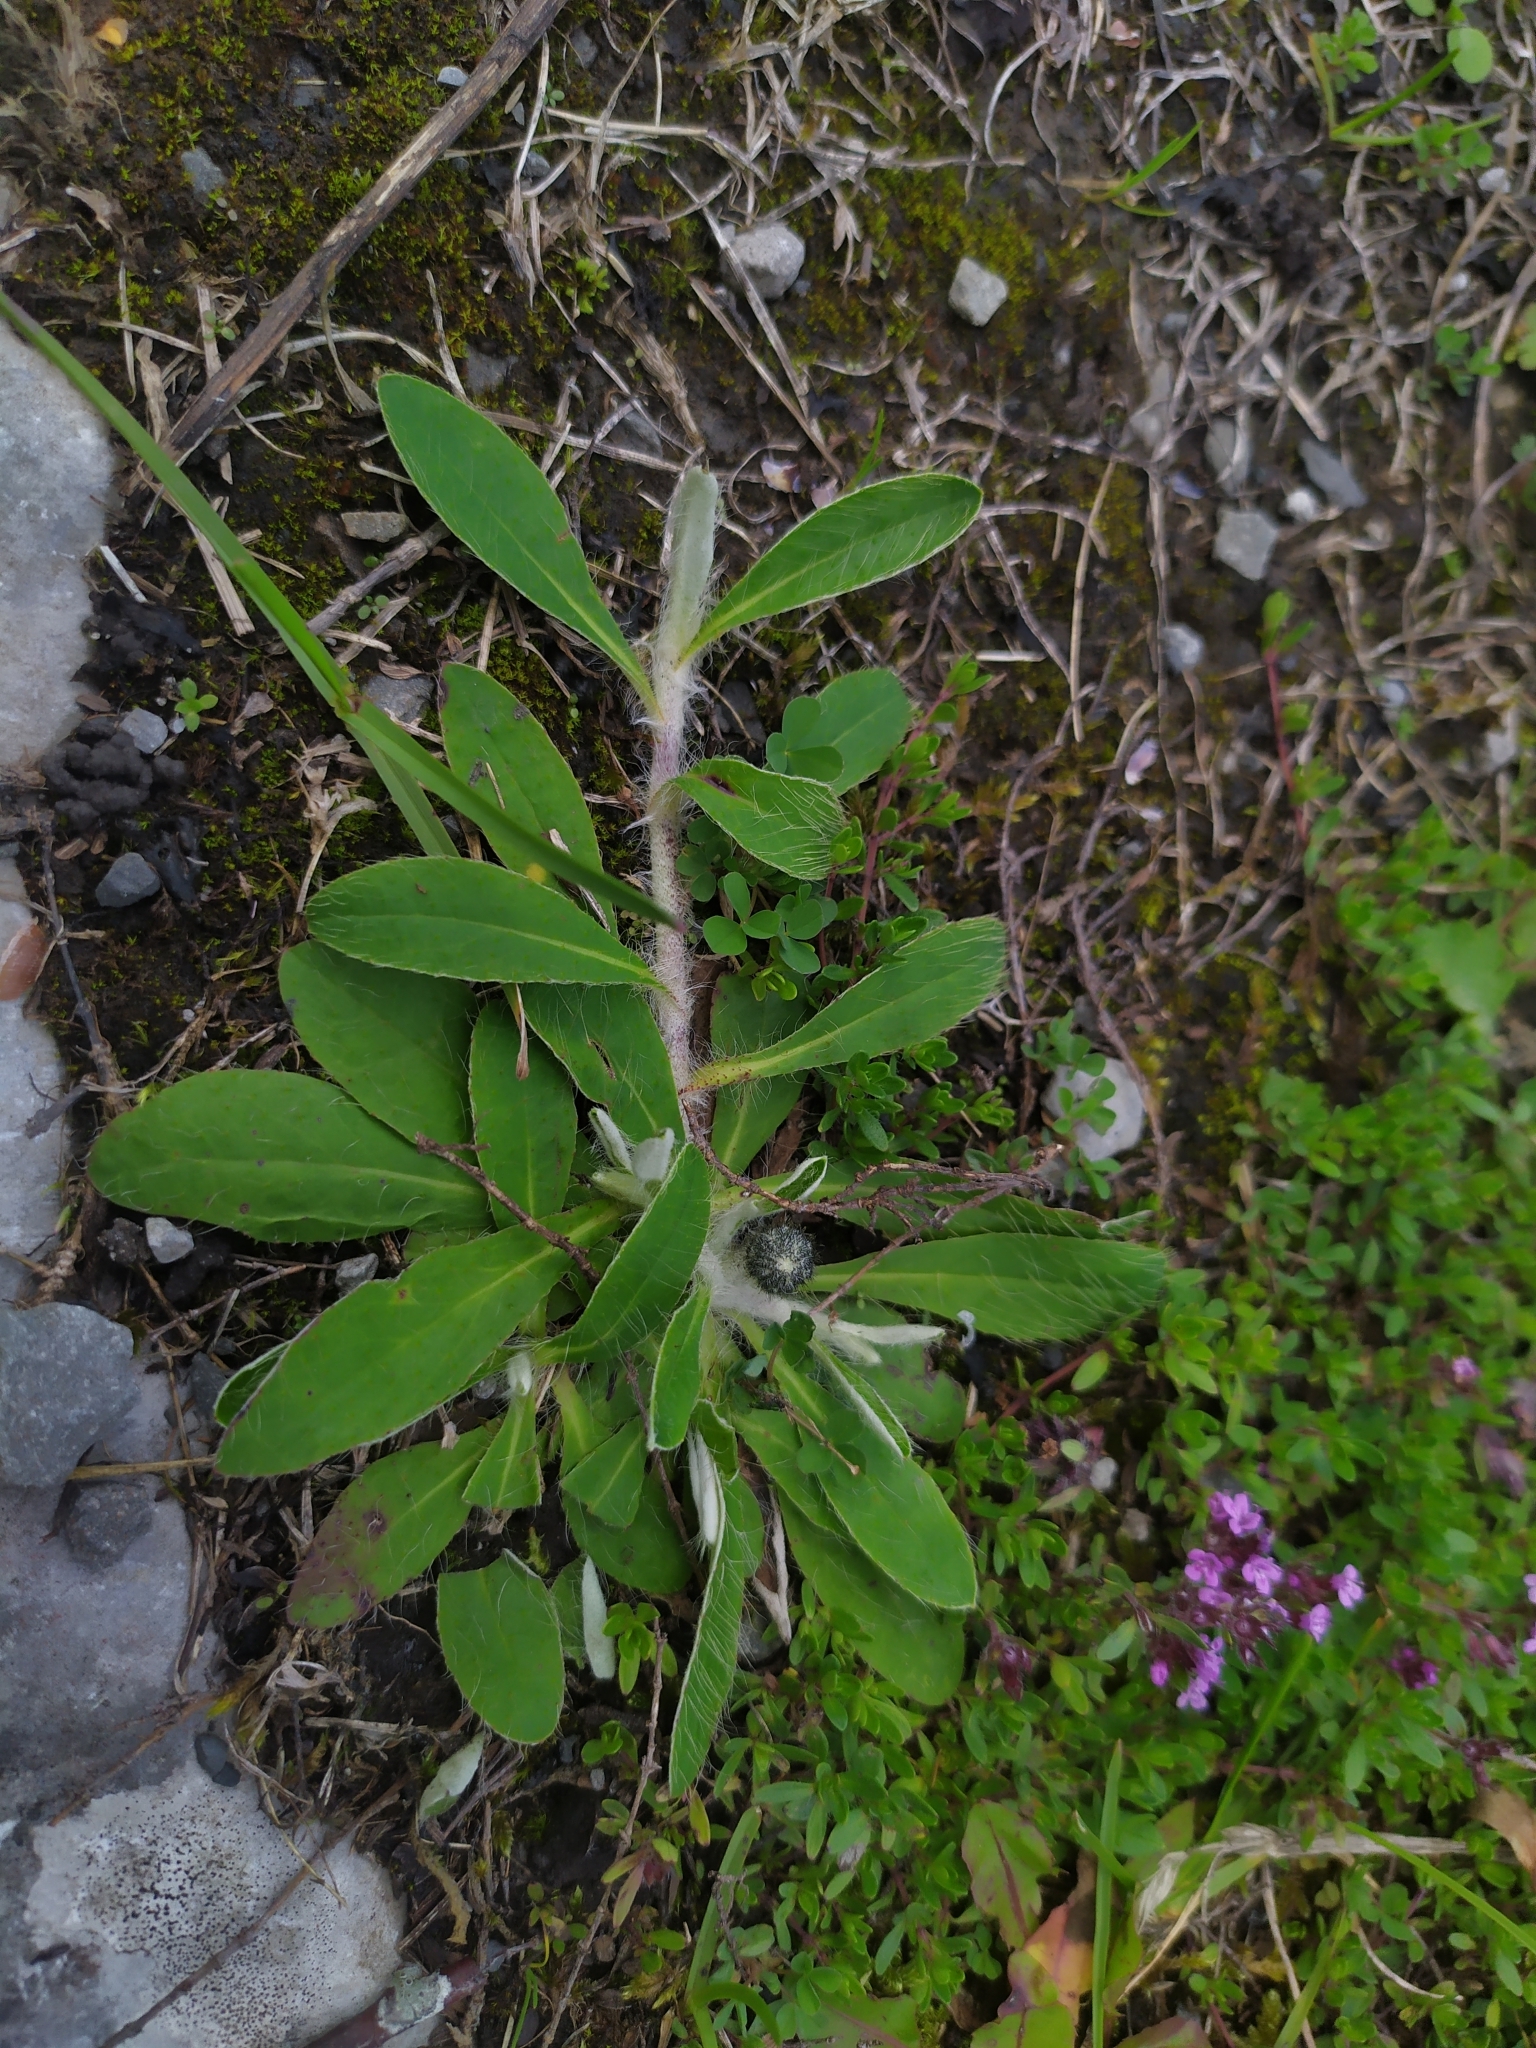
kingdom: Plantae
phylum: Tracheophyta
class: Magnoliopsida
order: Asterales
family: Asteraceae
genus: Pilosella
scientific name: Pilosella officinarum
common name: Mouse-ear hawkweed
